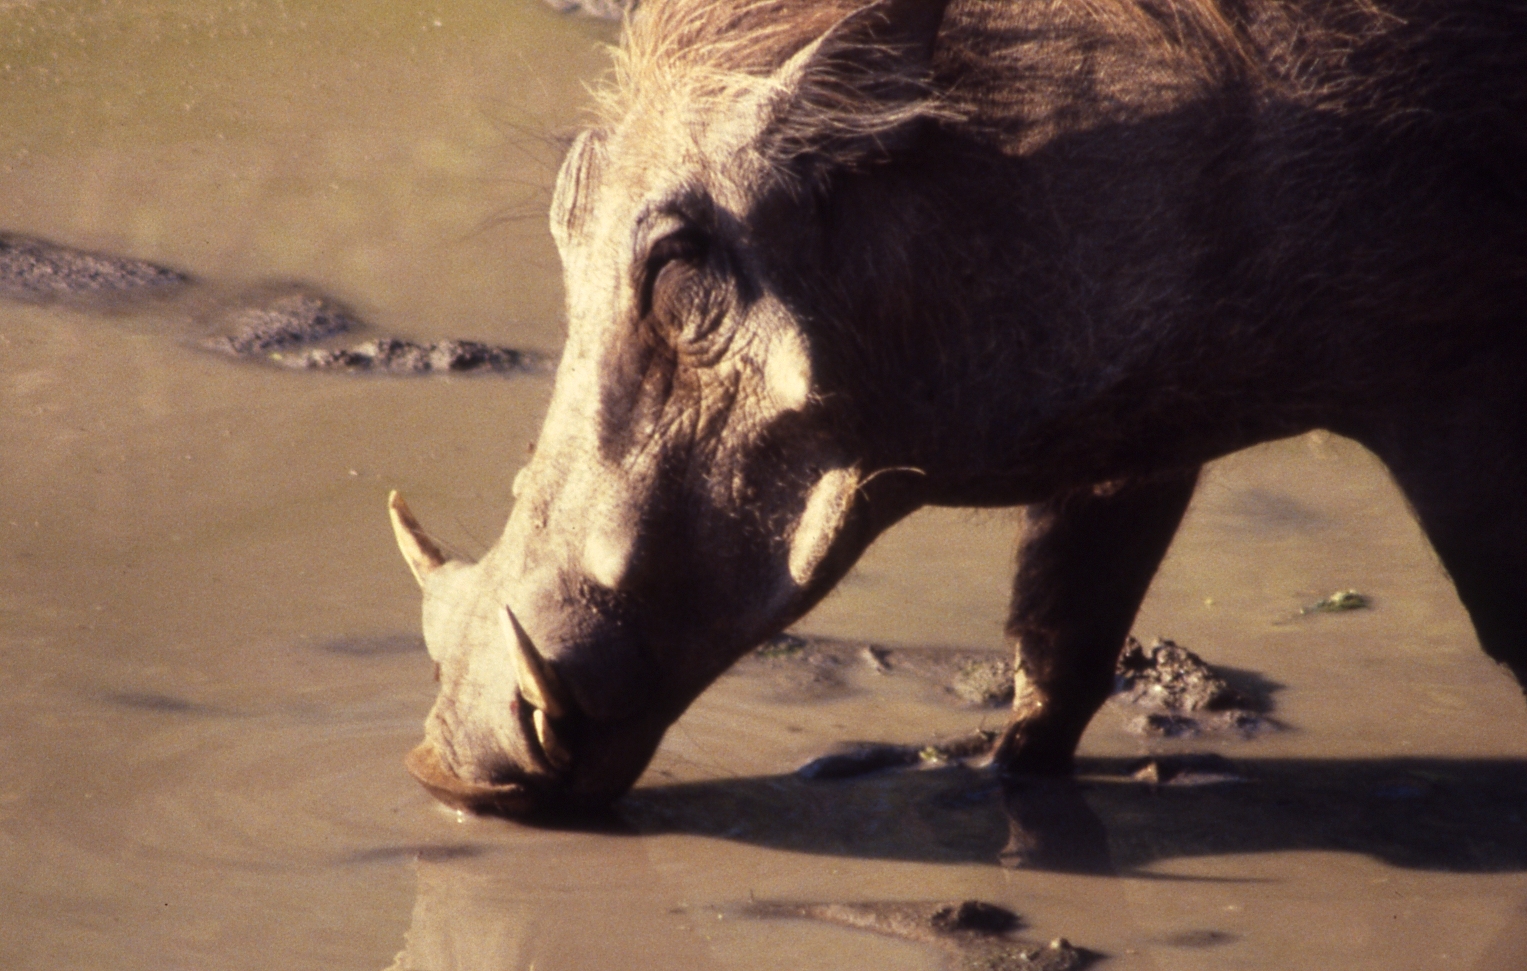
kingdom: Animalia
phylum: Chordata
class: Mammalia
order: Artiodactyla
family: Suidae
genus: Phacochoerus
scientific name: Phacochoerus africanus
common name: Common warthog
